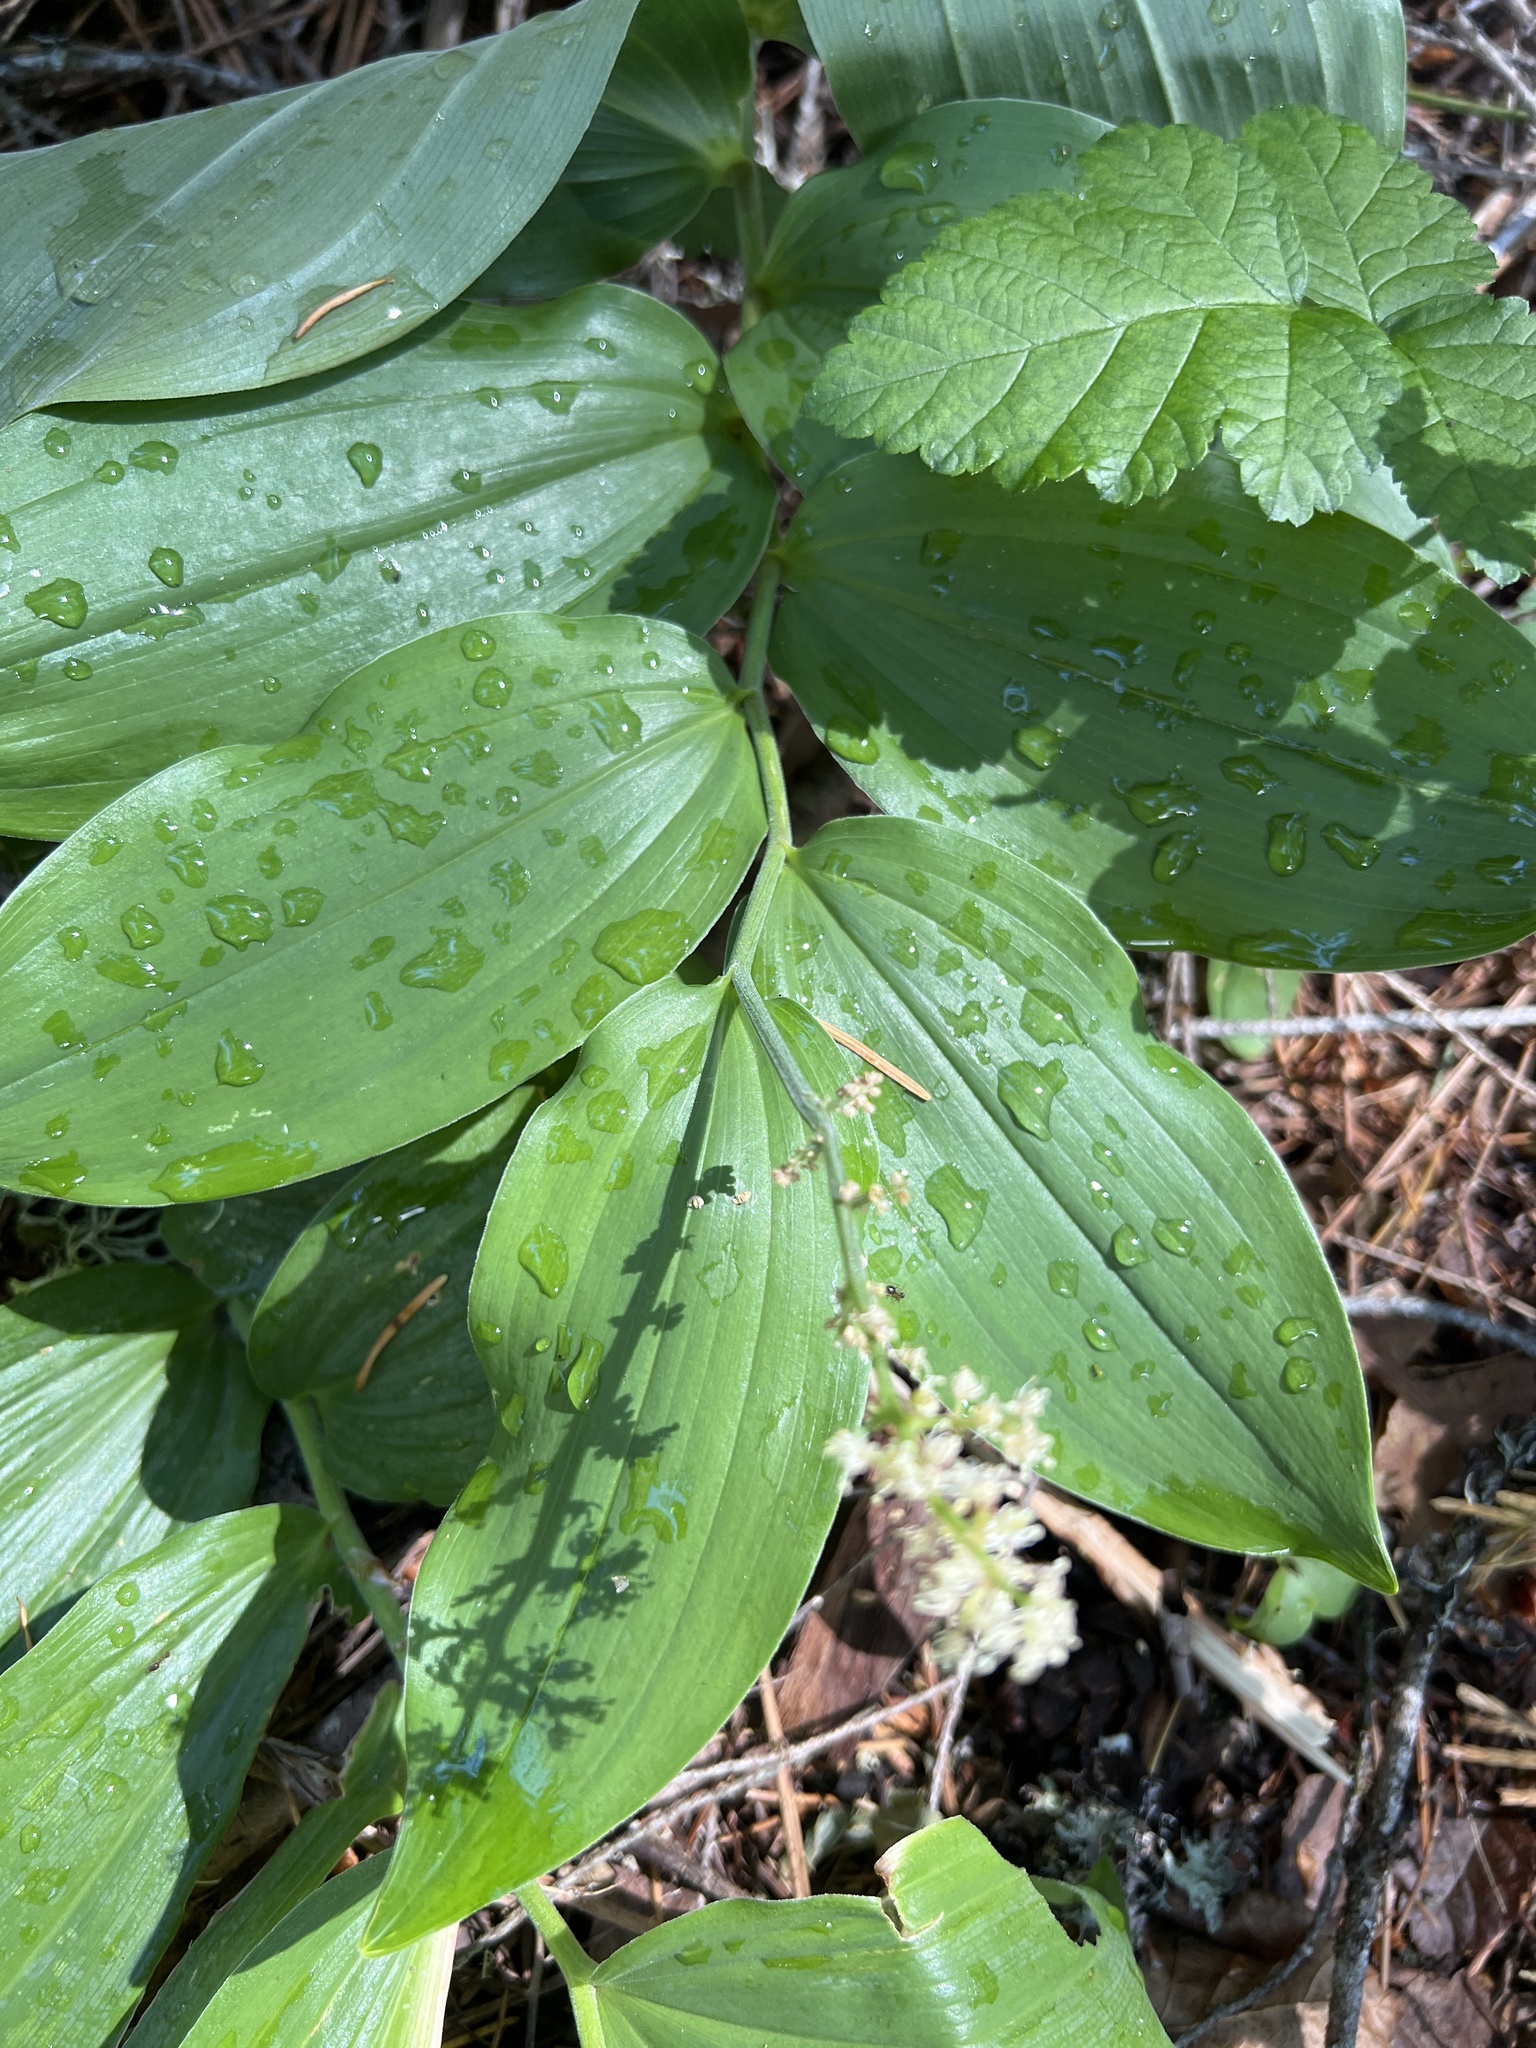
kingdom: Plantae
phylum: Tracheophyta
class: Liliopsida
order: Asparagales
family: Asparagaceae
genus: Maianthemum
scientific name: Maianthemum racemosum
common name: False spikenard
